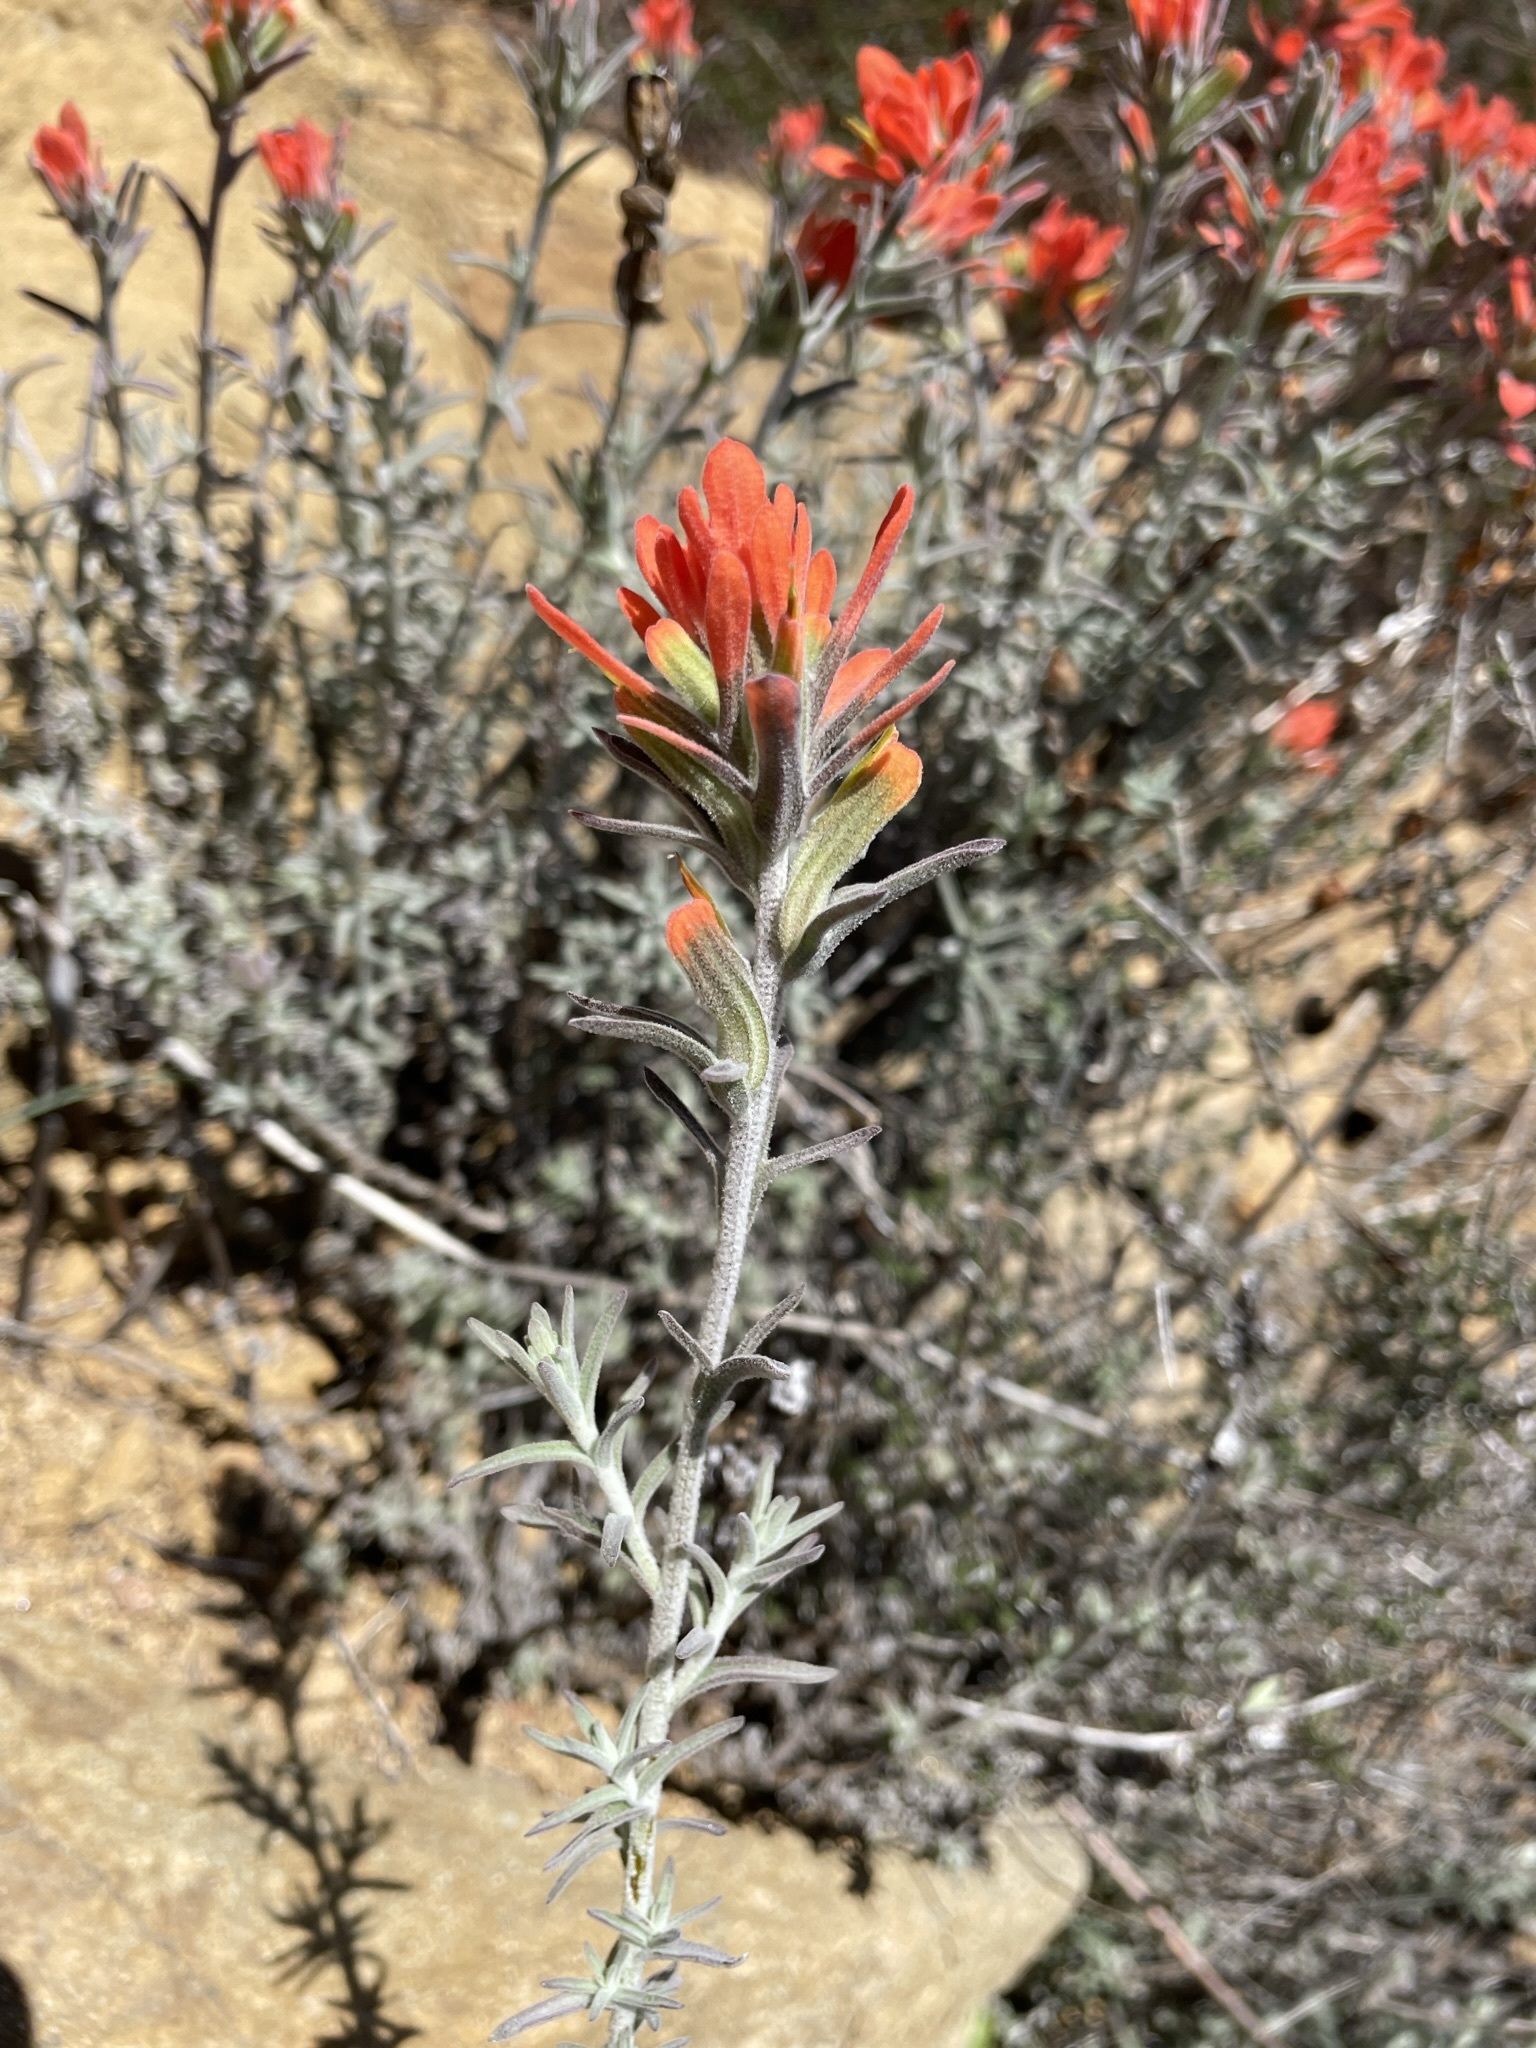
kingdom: Plantae
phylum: Tracheophyta
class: Magnoliopsida
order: Lamiales
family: Orobanchaceae
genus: Castilleja
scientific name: Castilleja foliolosa
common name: Woolly indian paintbrush
